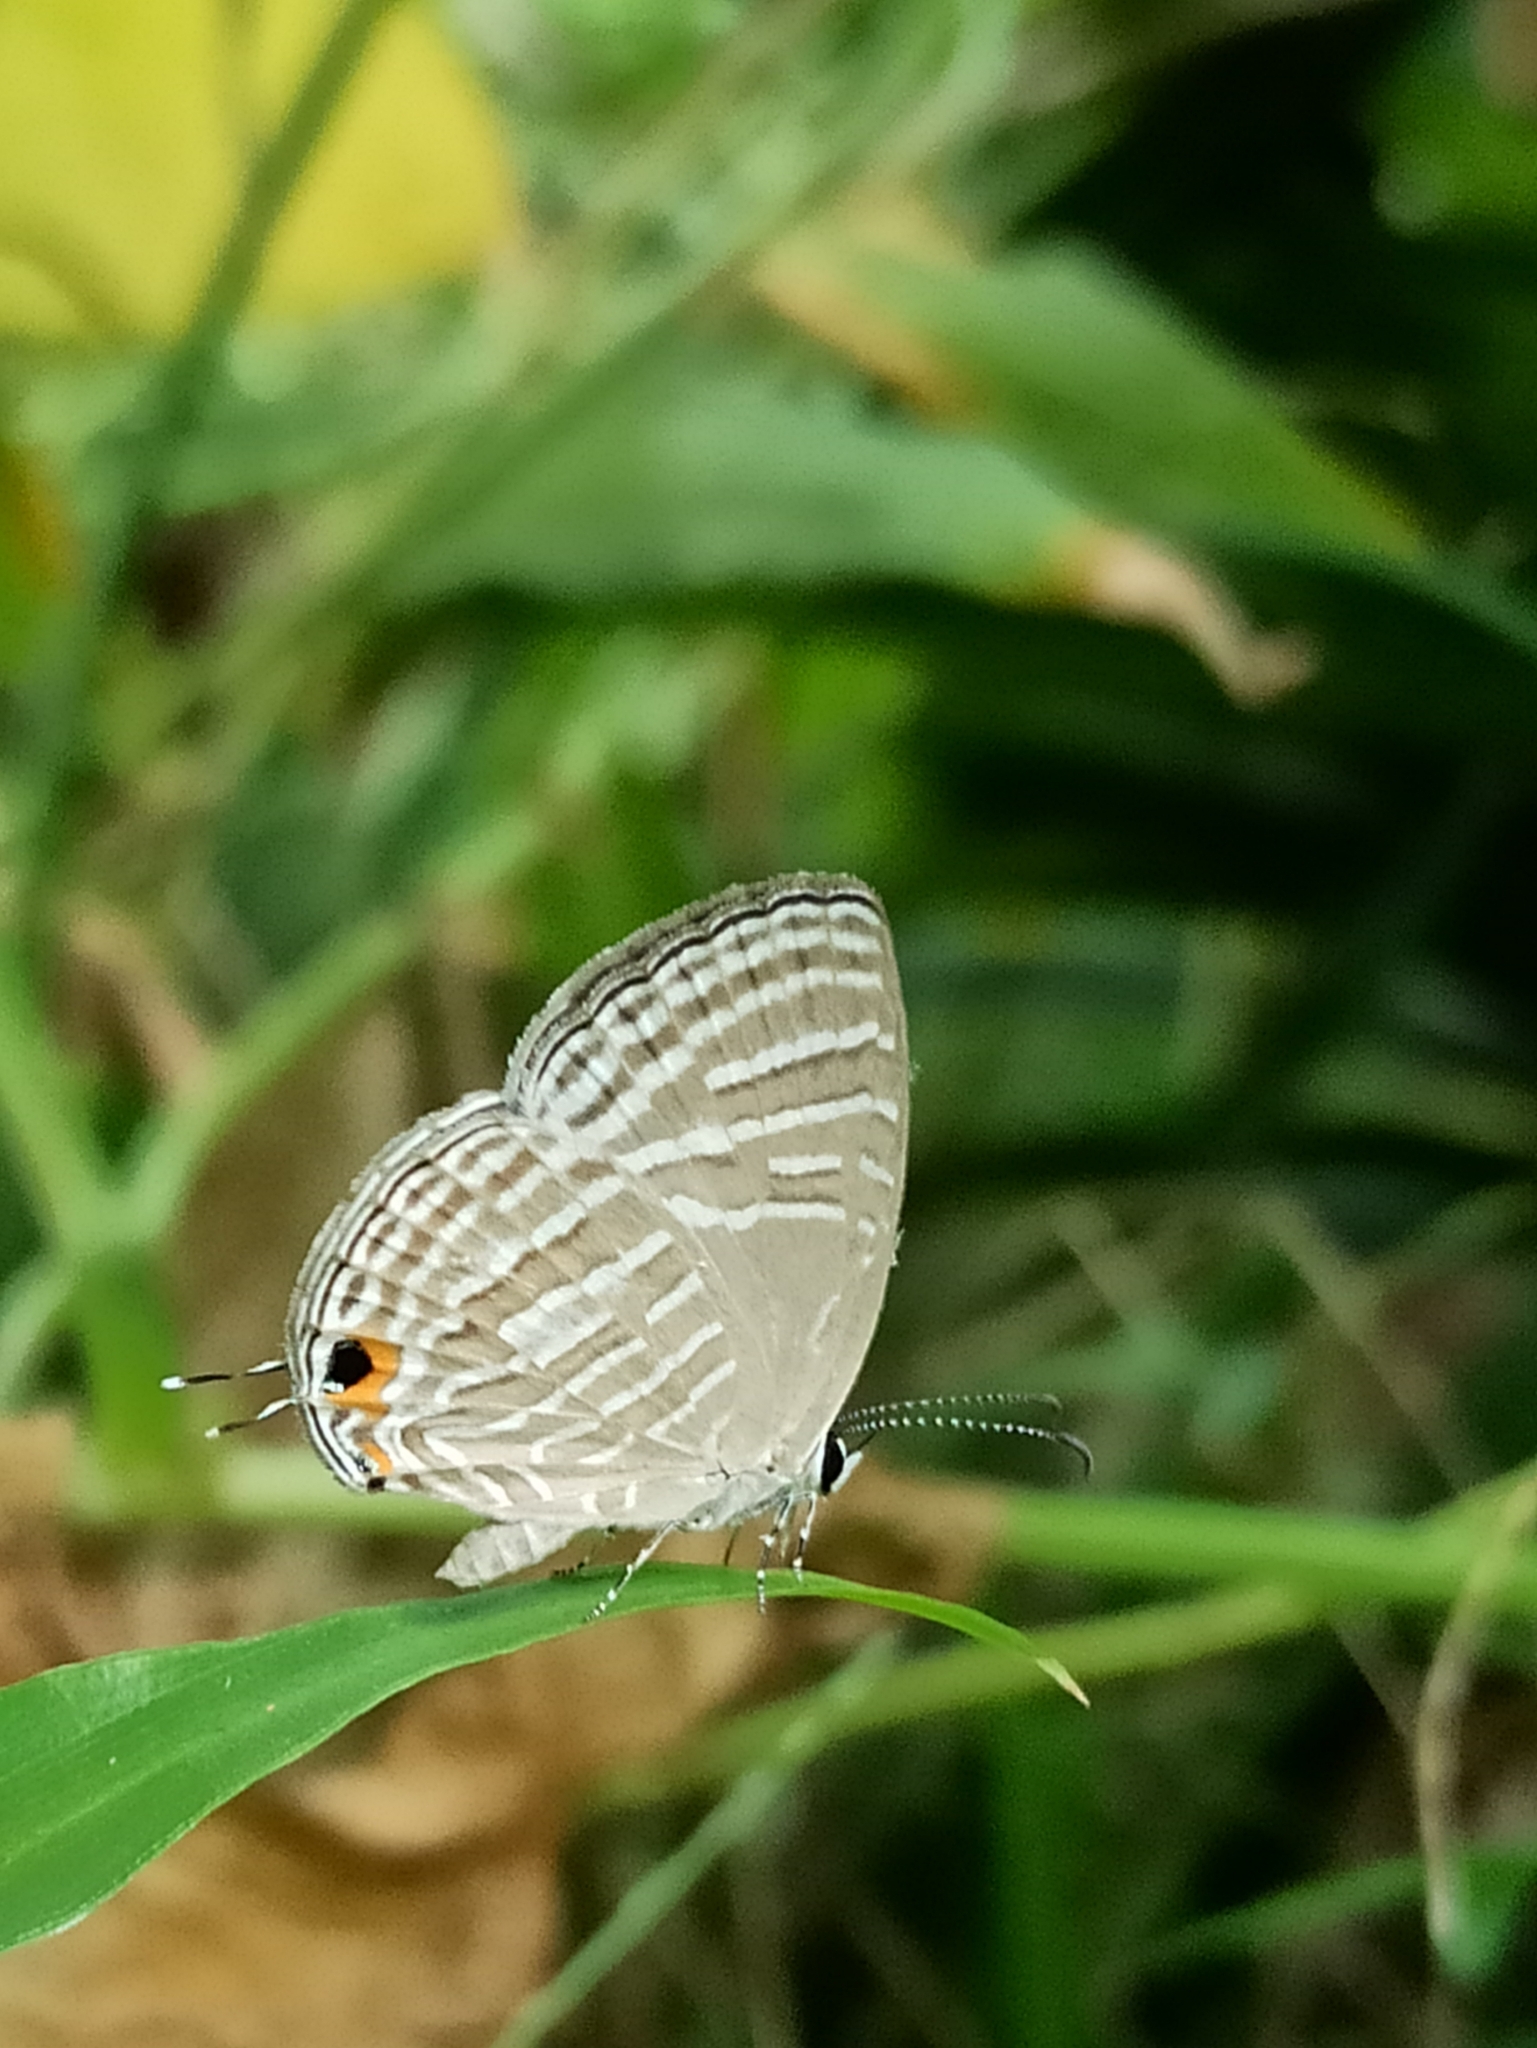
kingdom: Animalia
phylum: Arthropoda
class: Insecta
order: Lepidoptera
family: Lycaenidae
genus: Jamides
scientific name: Jamides celeno
